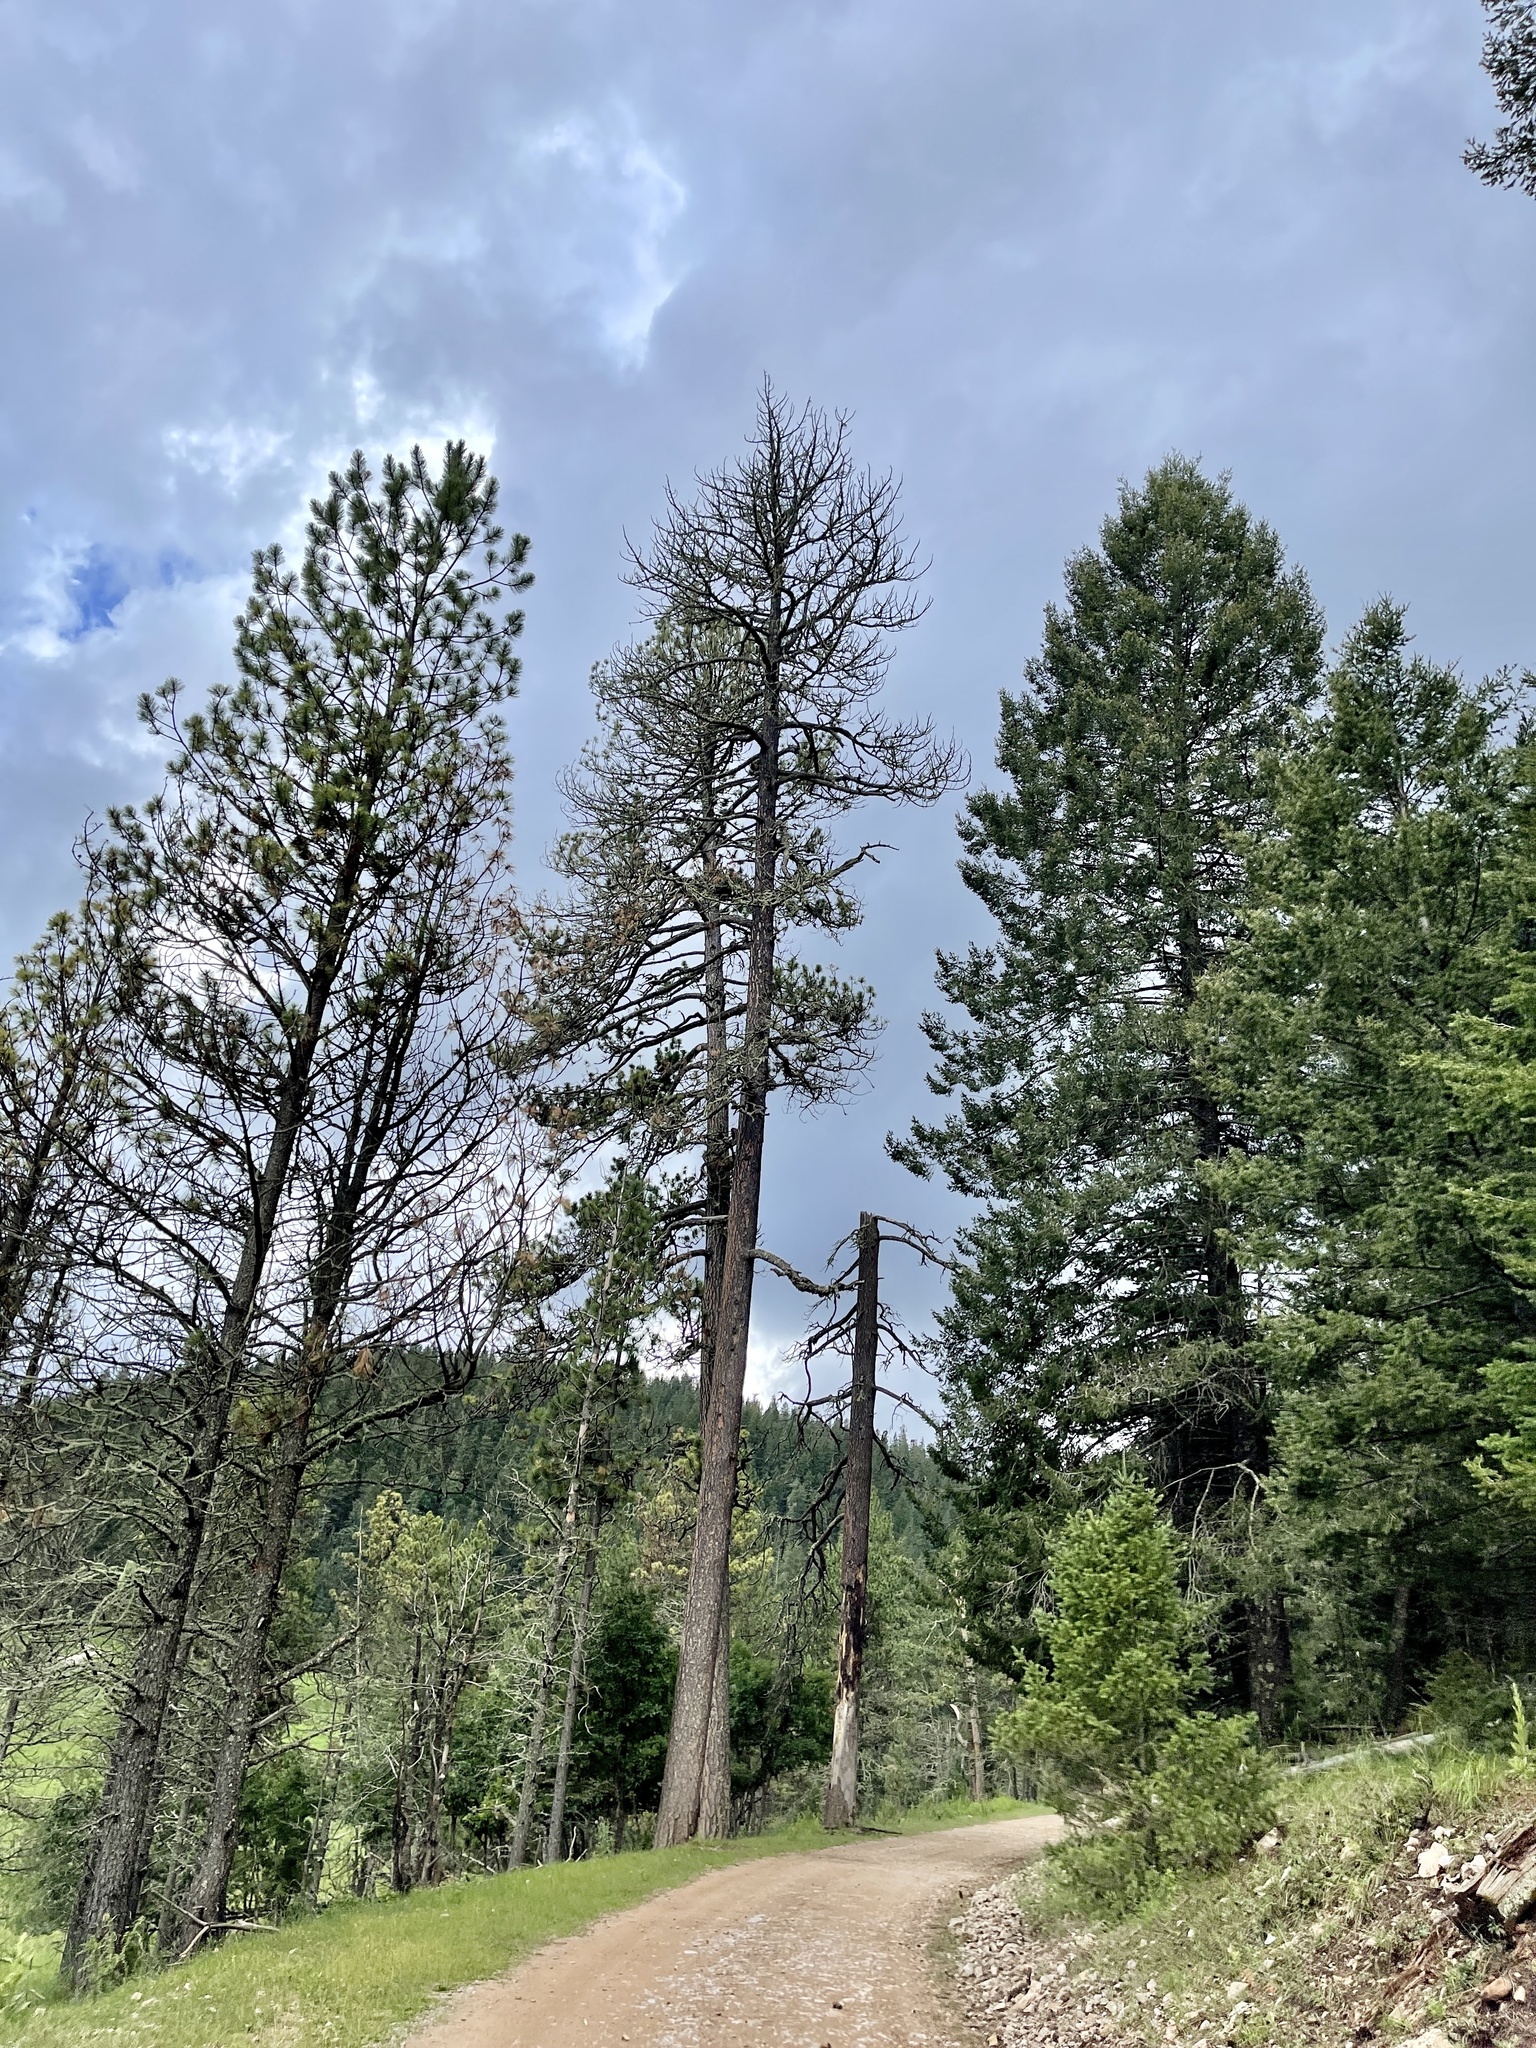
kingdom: Plantae
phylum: Tracheophyta
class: Pinopsida
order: Pinales
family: Pinaceae
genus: Pinus
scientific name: Pinus ponderosa
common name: Western yellow-pine
